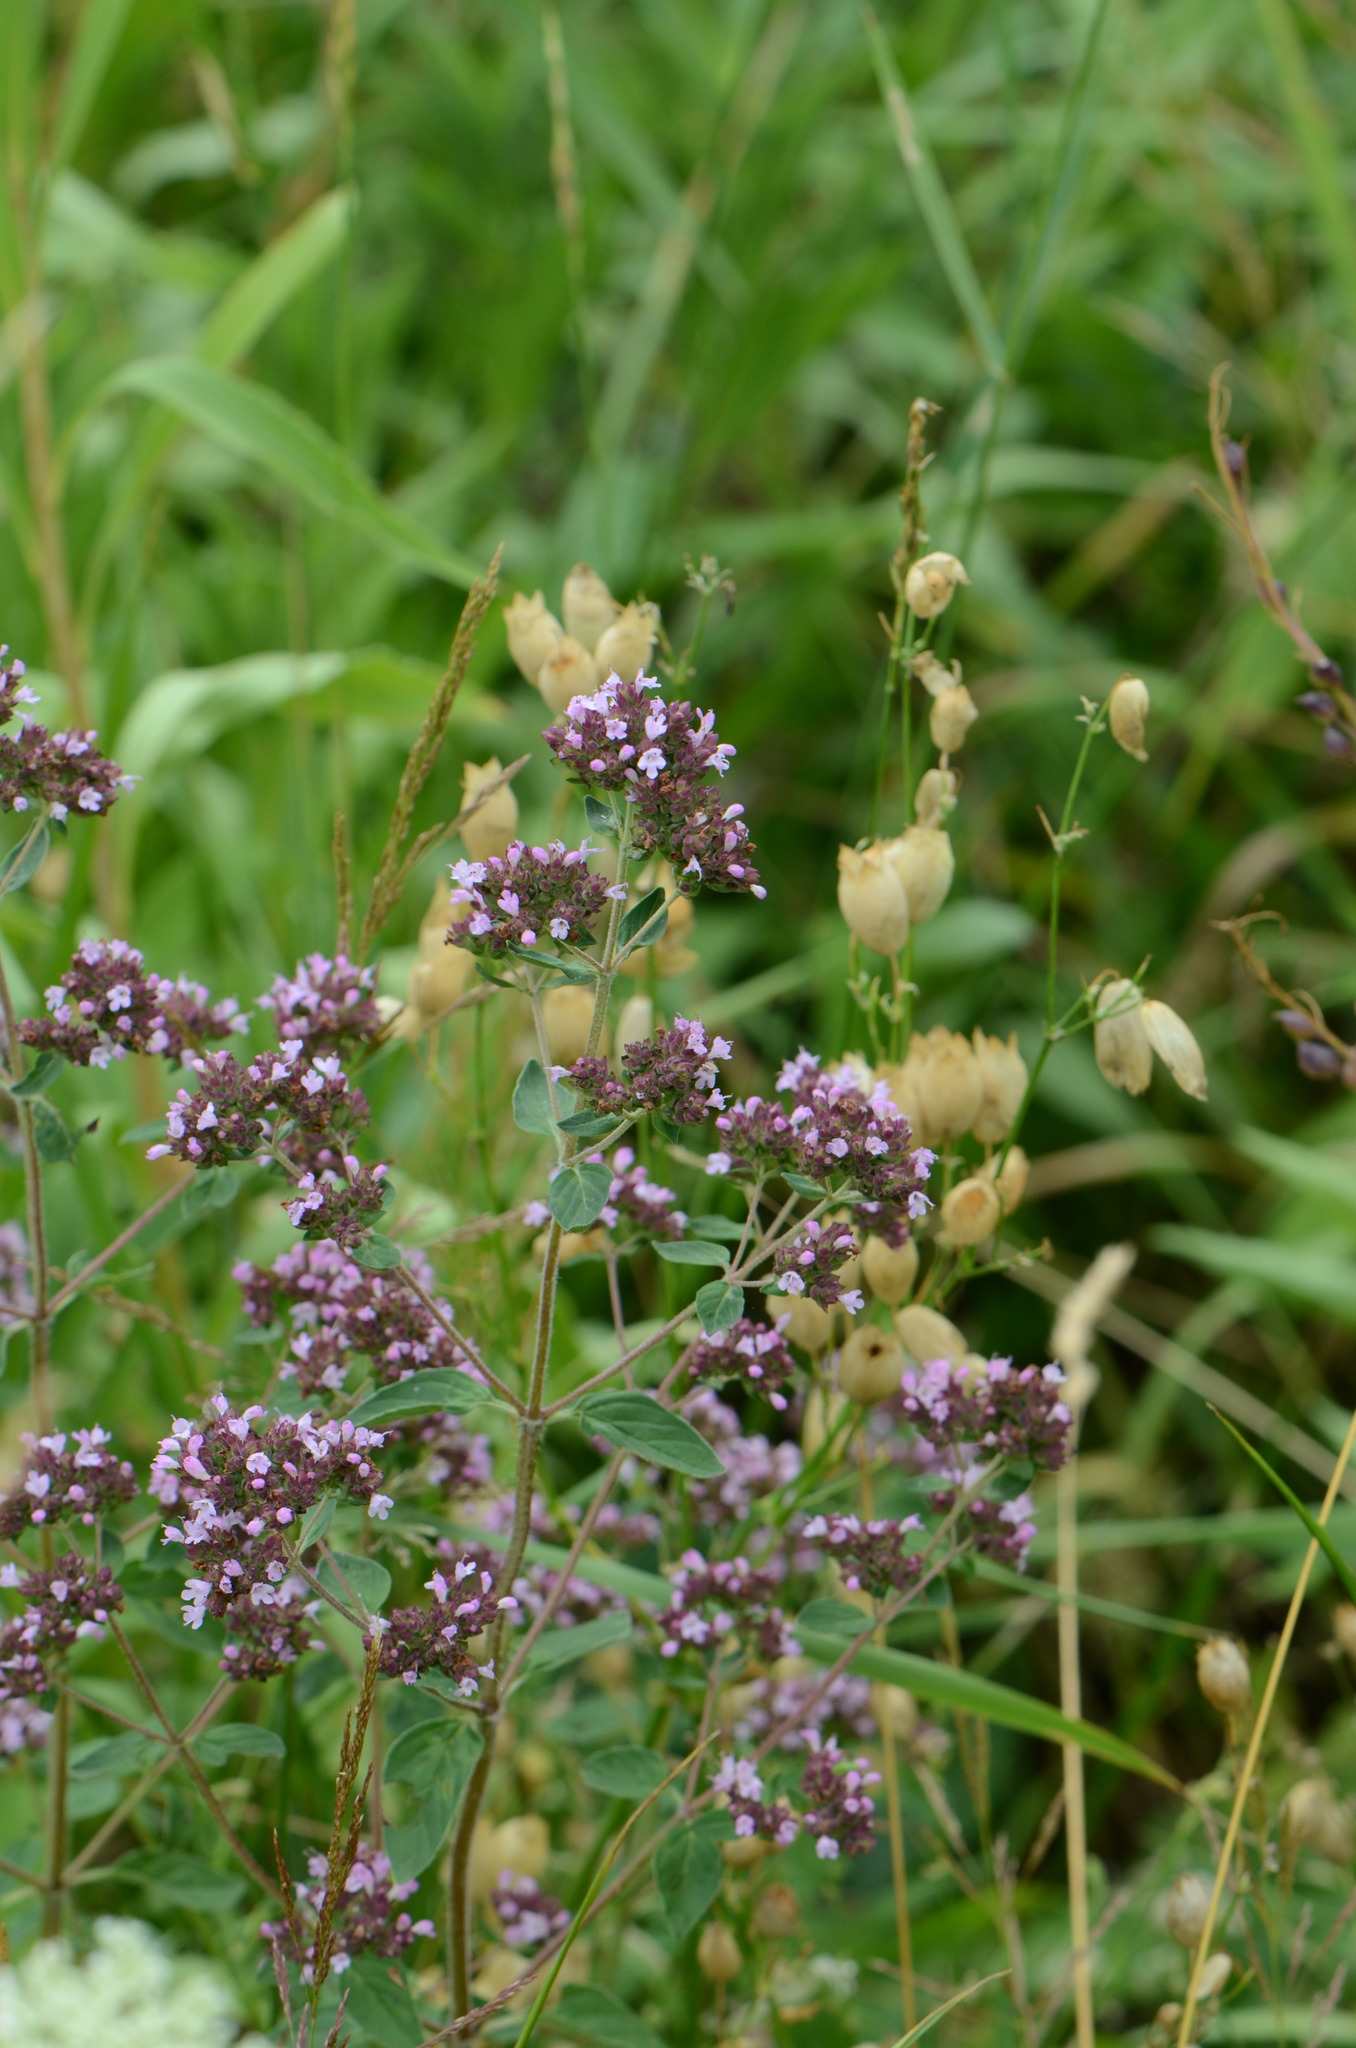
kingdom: Plantae
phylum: Tracheophyta
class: Magnoliopsida
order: Lamiales
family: Lamiaceae
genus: Origanum
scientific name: Origanum vulgare
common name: Wild marjoram
